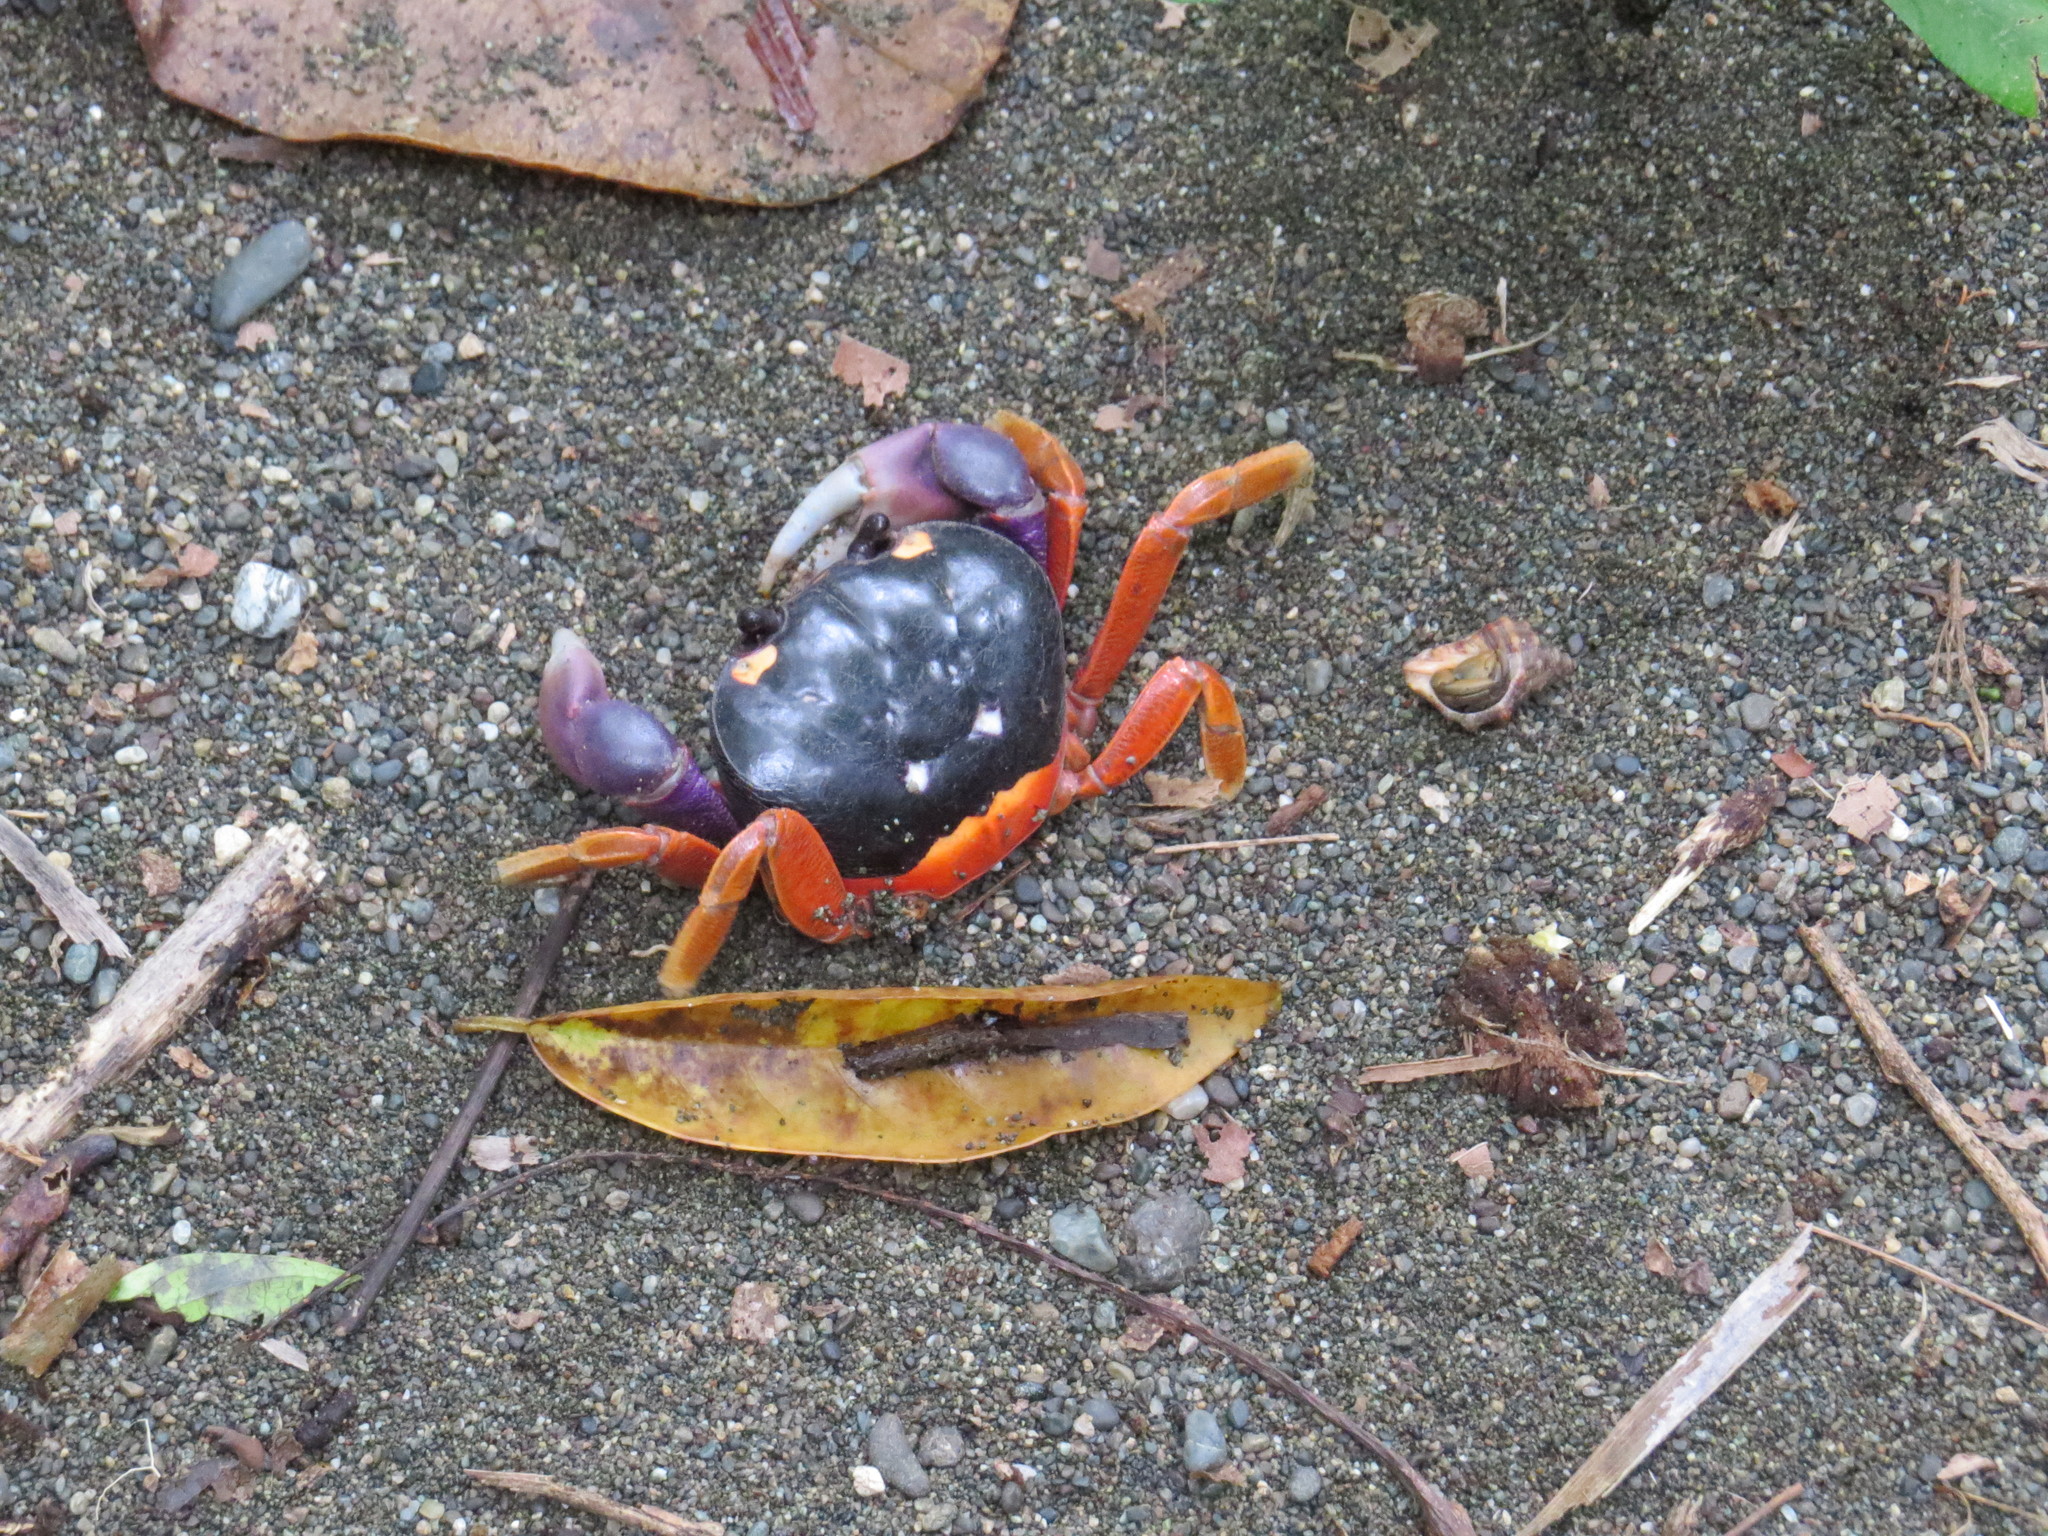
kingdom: Animalia
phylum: Arthropoda
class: Malacostraca
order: Decapoda
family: Gecarcinidae
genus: Gecarcinus
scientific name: Gecarcinus quadratus
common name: Halloween crab
